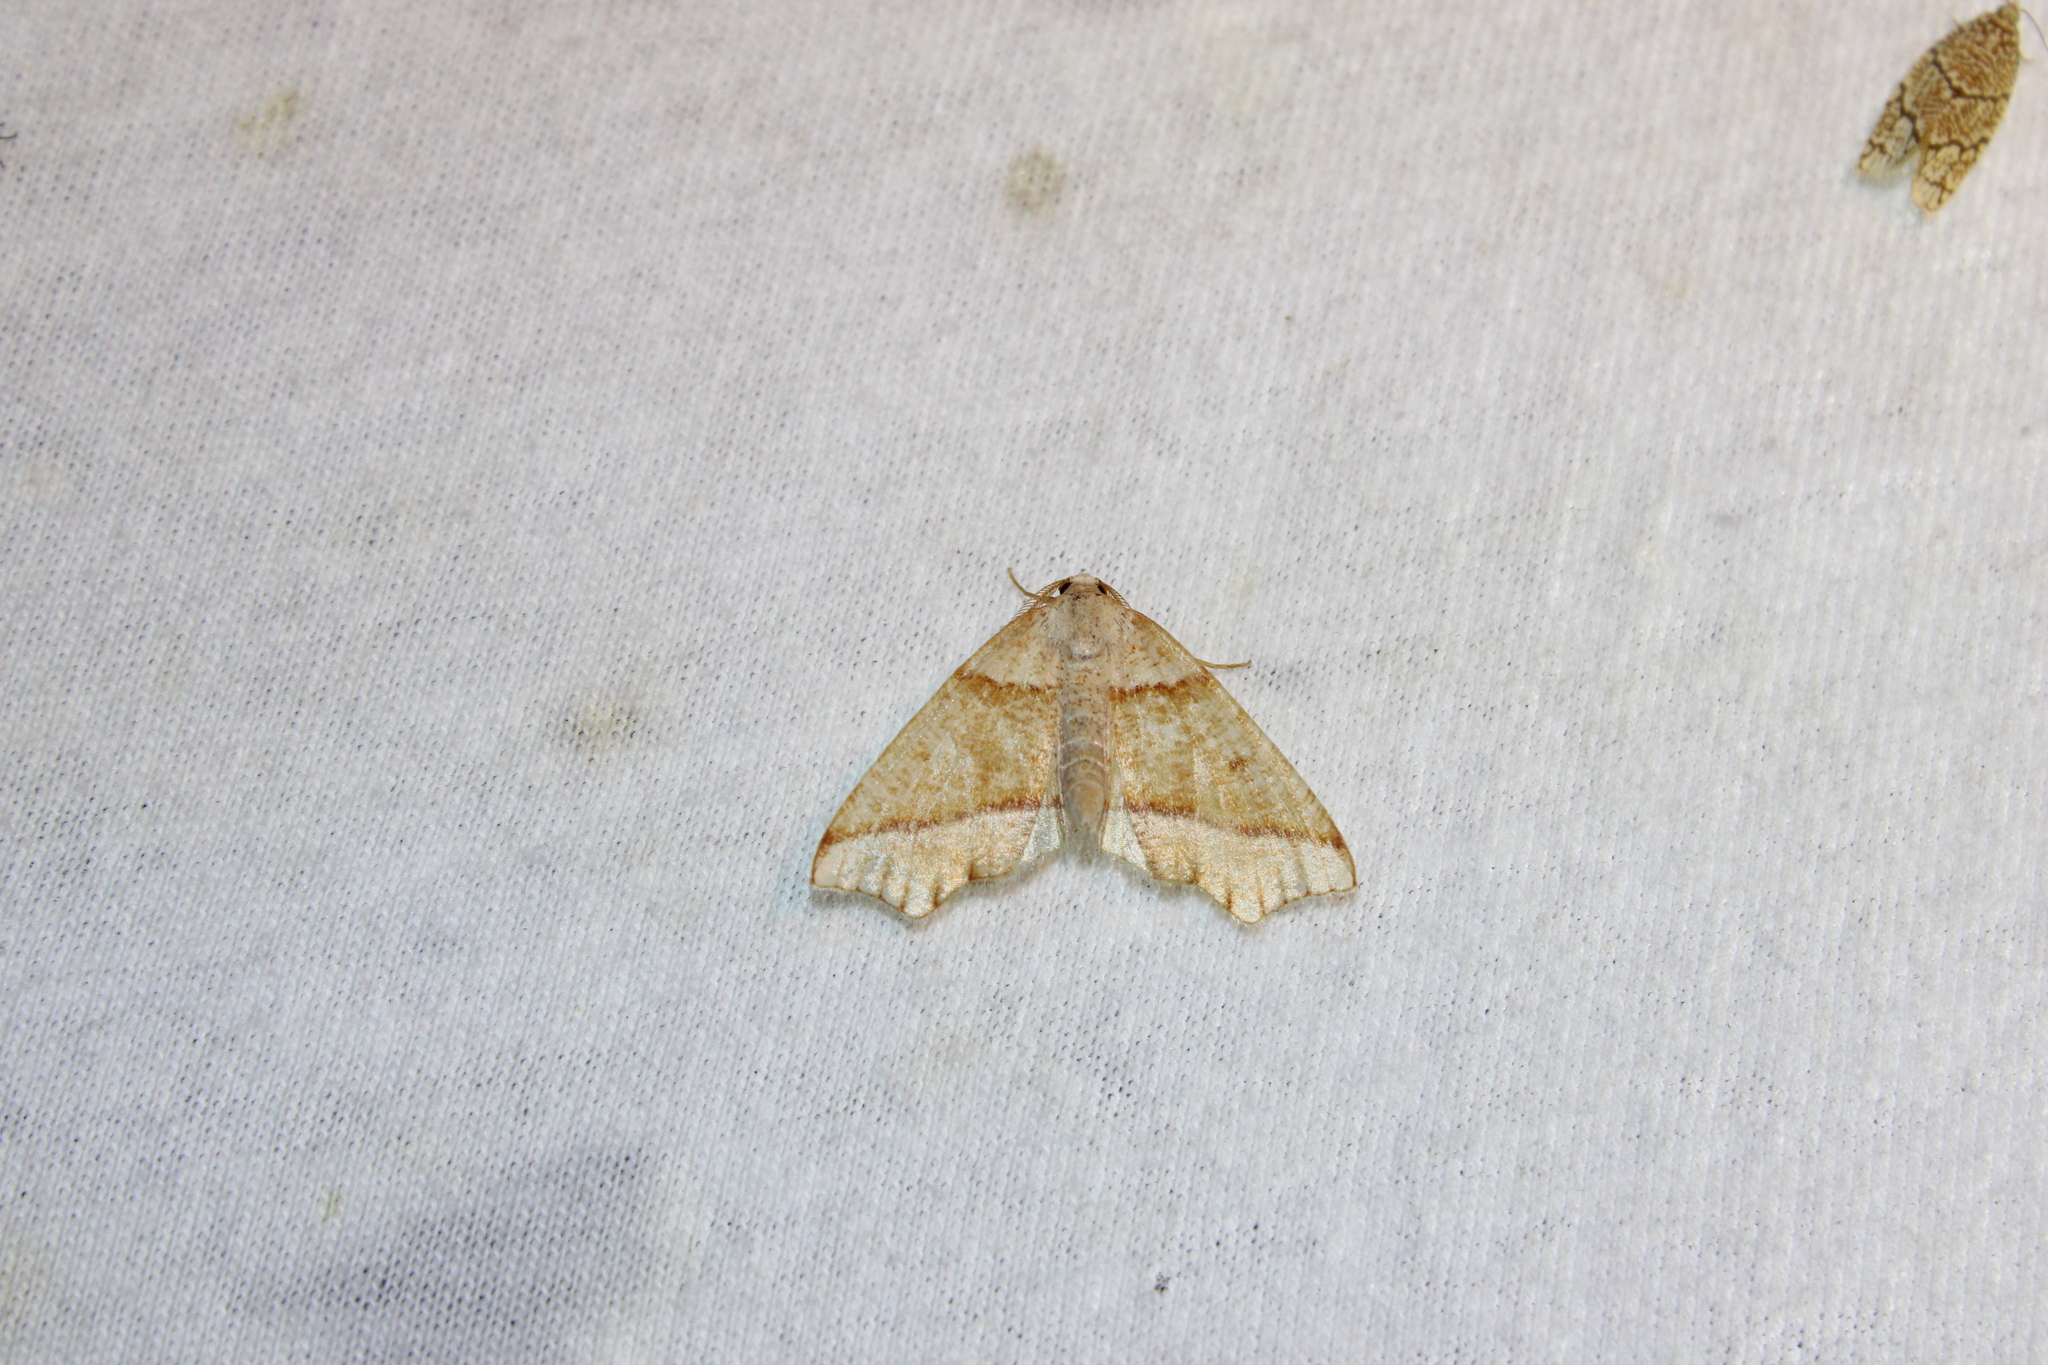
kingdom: Animalia
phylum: Arthropoda
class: Insecta
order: Lepidoptera
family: Geometridae
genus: Plagodis
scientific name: Plagodis alcoolaria
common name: Hollow-spotted plagodis
